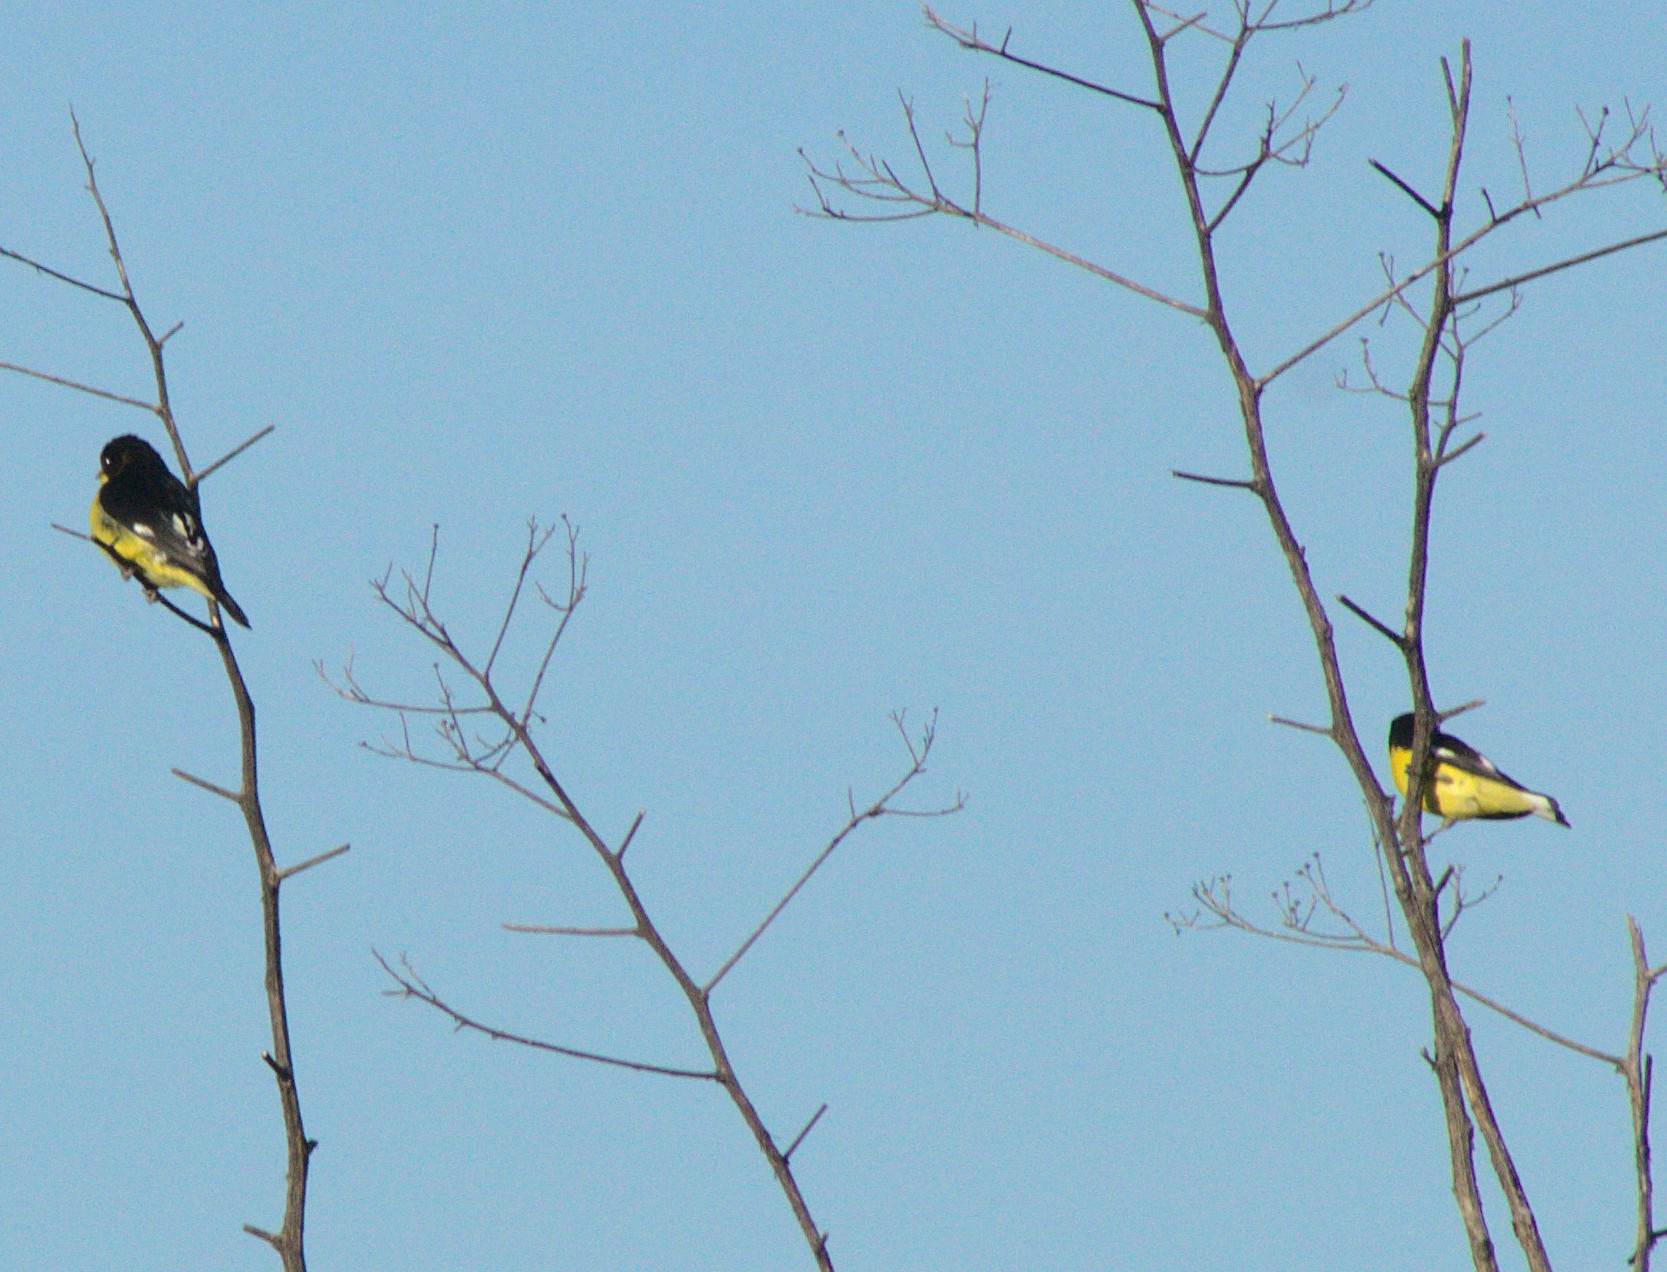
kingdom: Animalia
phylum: Chordata
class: Aves
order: Passeriformes
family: Fringillidae
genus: Spinus
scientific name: Spinus psaltria
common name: Lesser goldfinch
